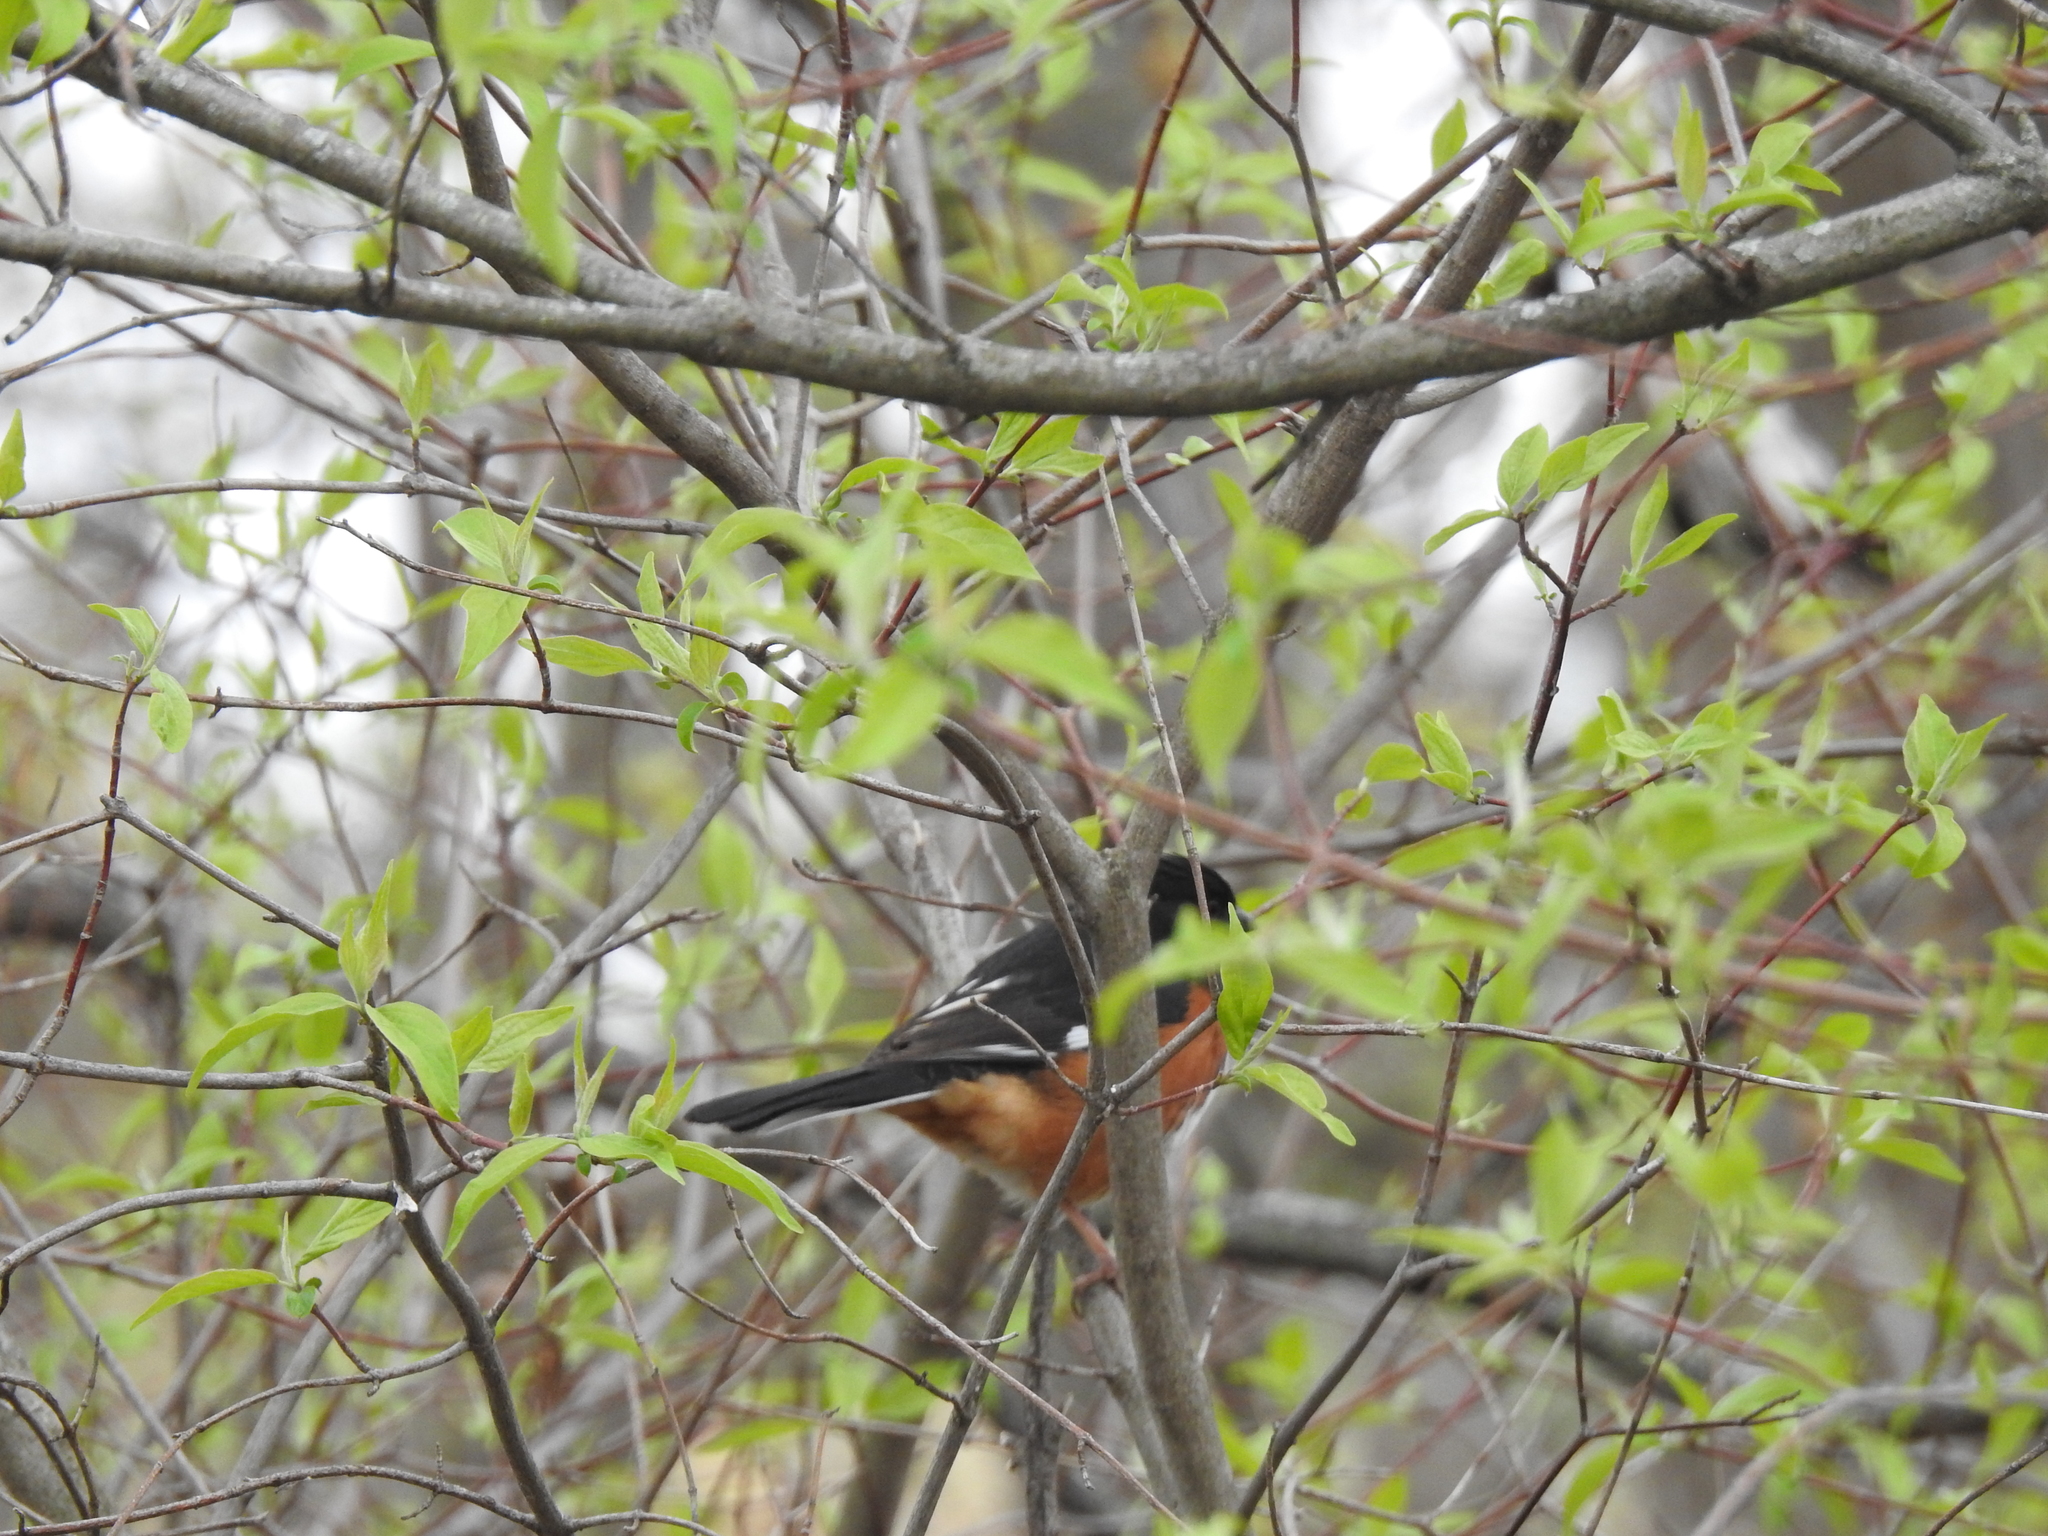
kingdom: Animalia
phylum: Chordata
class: Aves
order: Passeriformes
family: Passerellidae
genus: Pipilo
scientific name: Pipilo erythrophthalmus
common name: Eastern towhee
